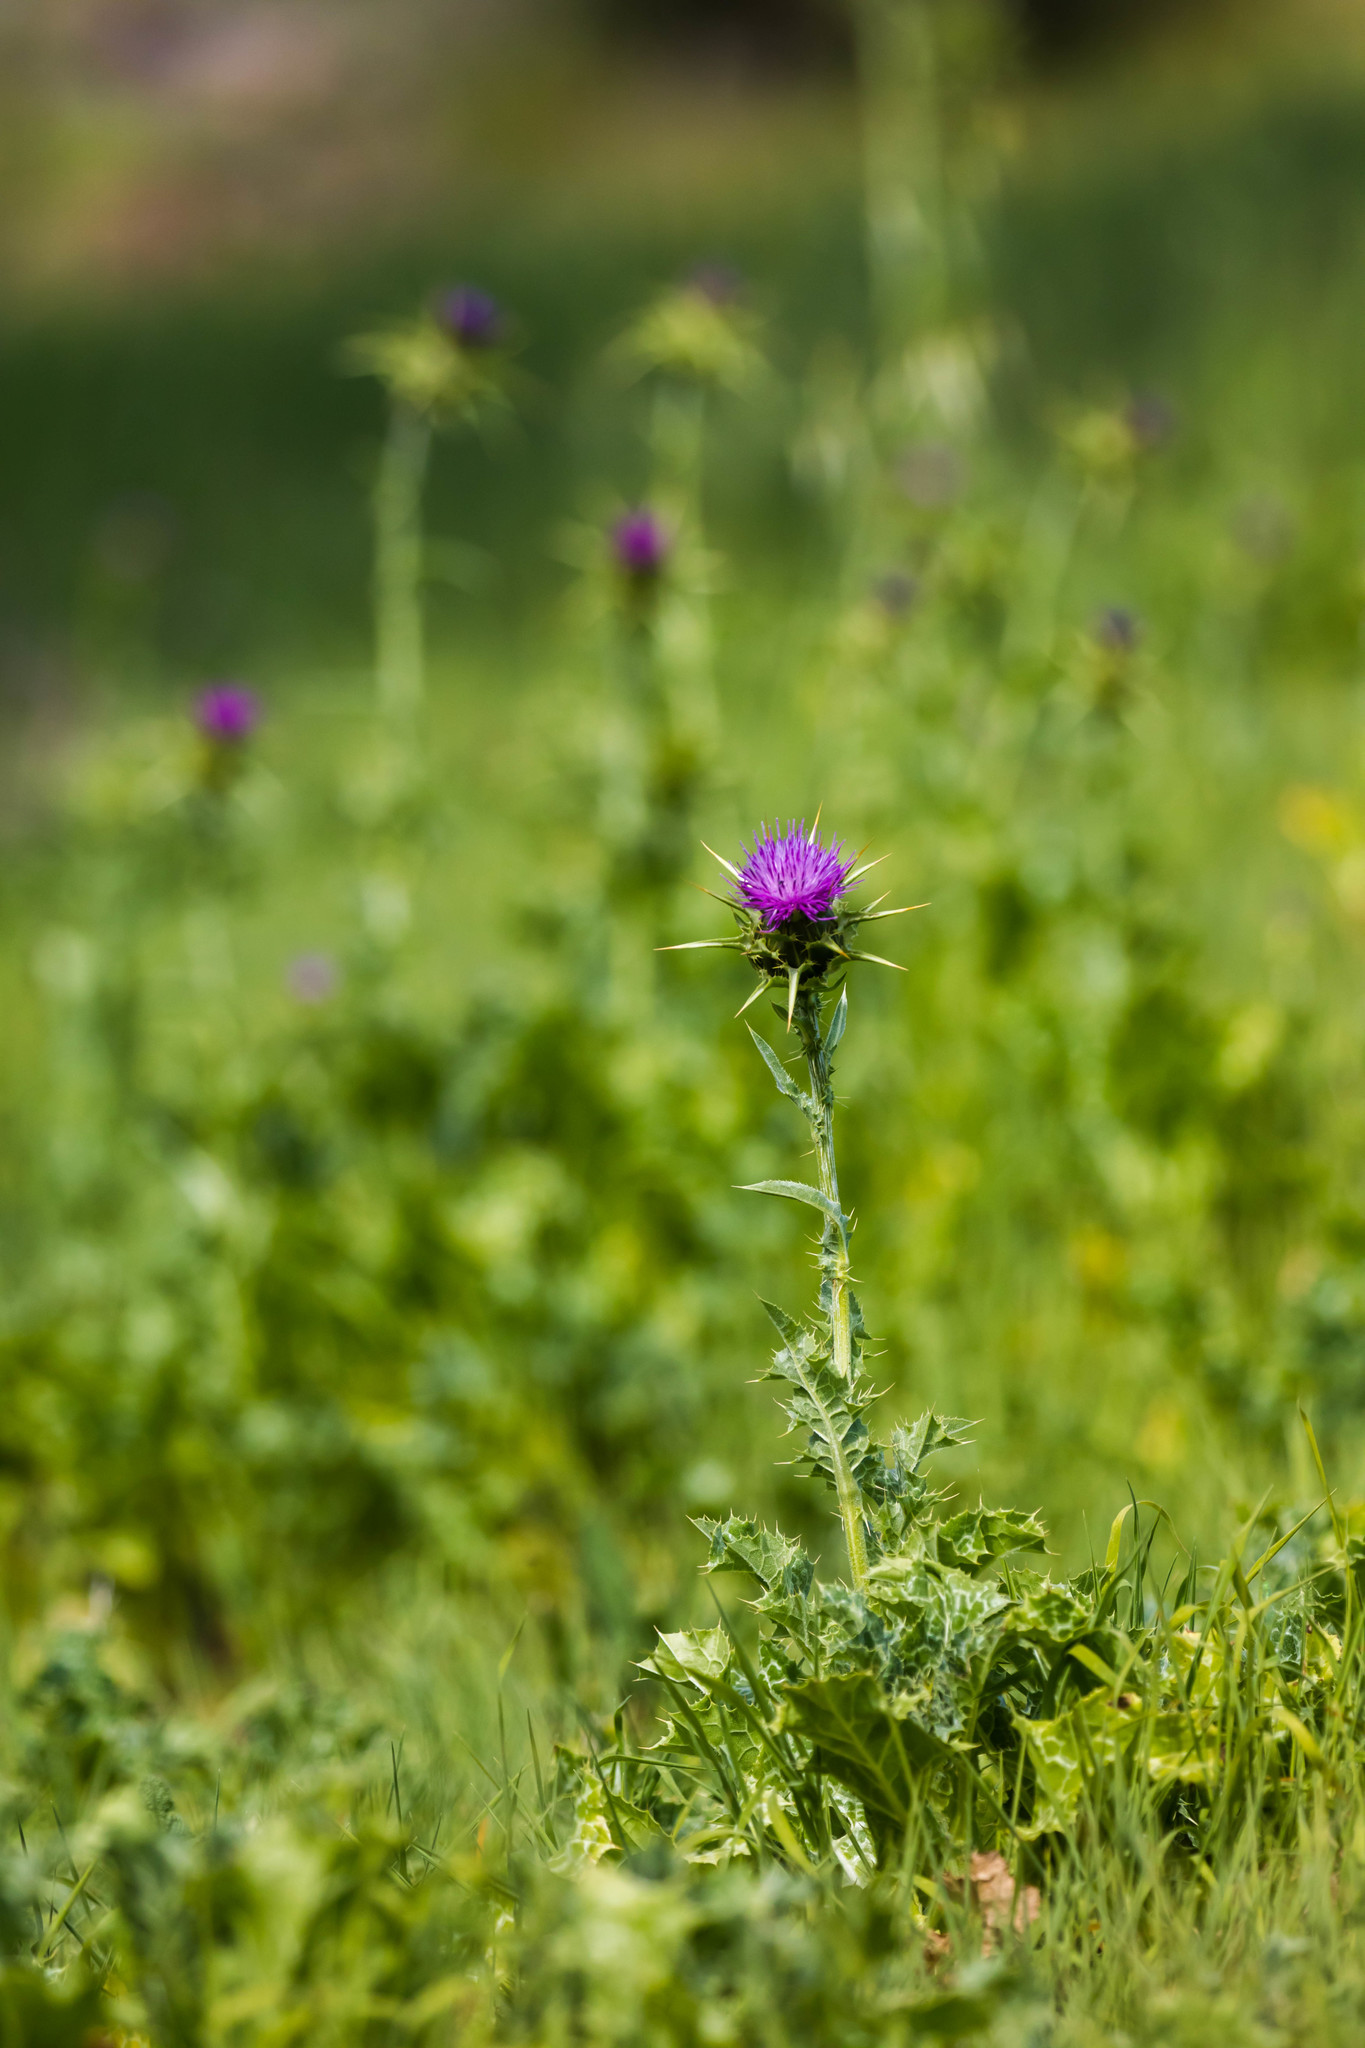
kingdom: Plantae
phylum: Tracheophyta
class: Magnoliopsida
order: Asterales
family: Asteraceae
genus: Silybum
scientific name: Silybum marianum
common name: Milk thistle
